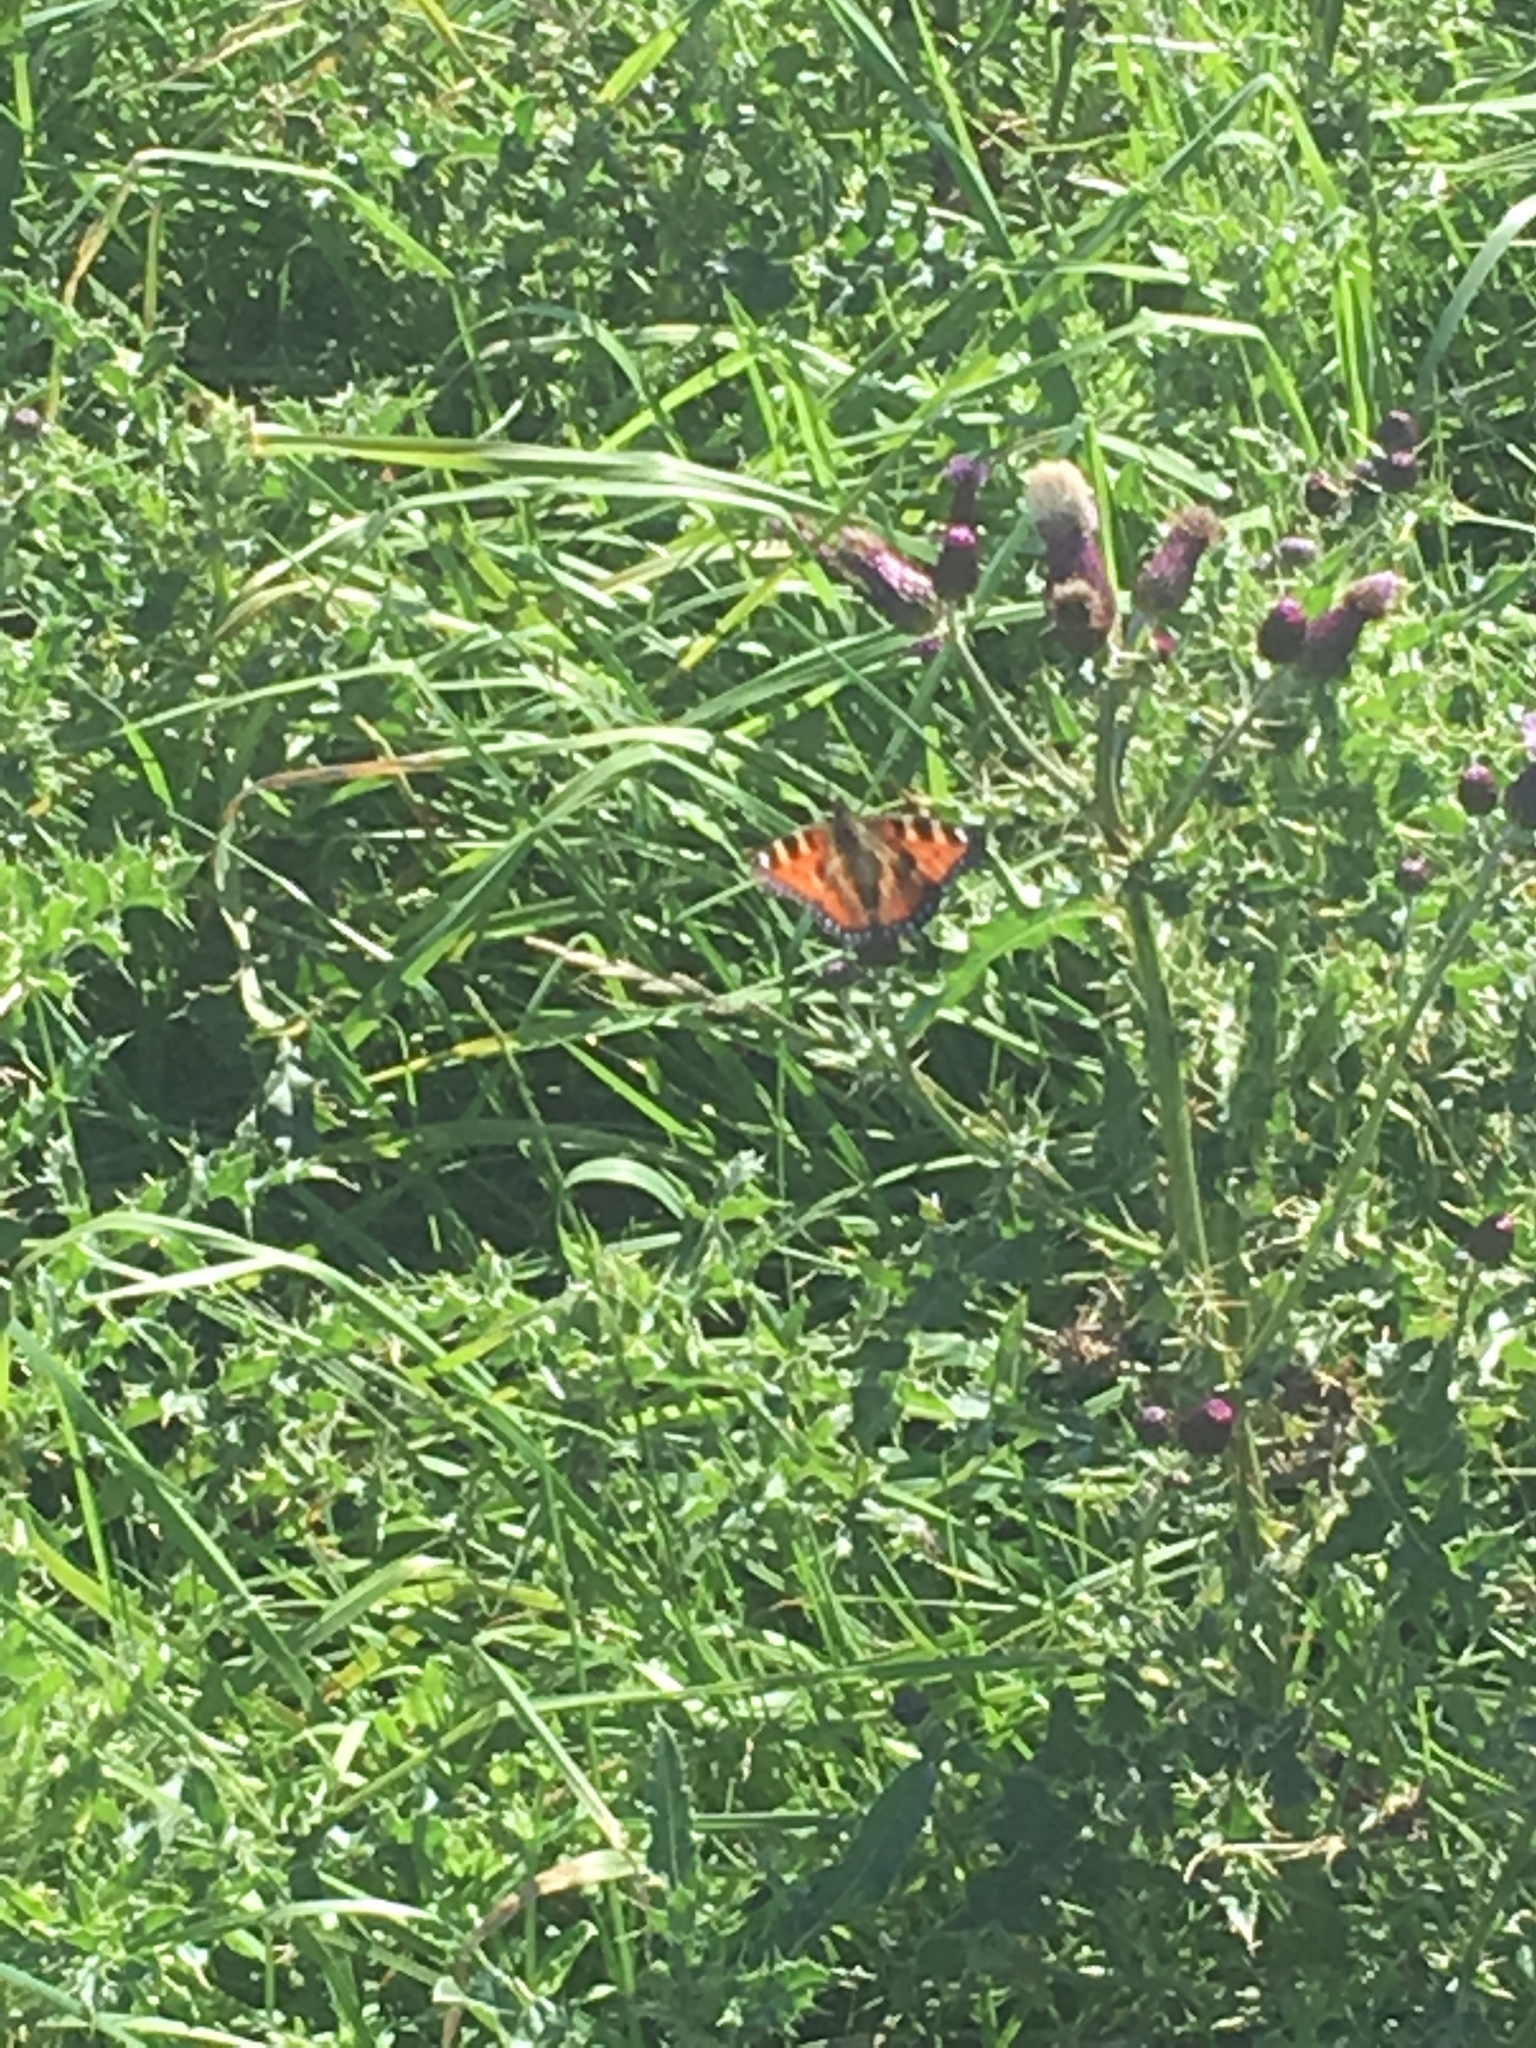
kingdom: Animalia
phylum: Arthropoda
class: Insecta
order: Lepidoptera
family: Nymphalidae
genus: Aglais
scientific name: Aglais urticae
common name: Small tortoiseshell
